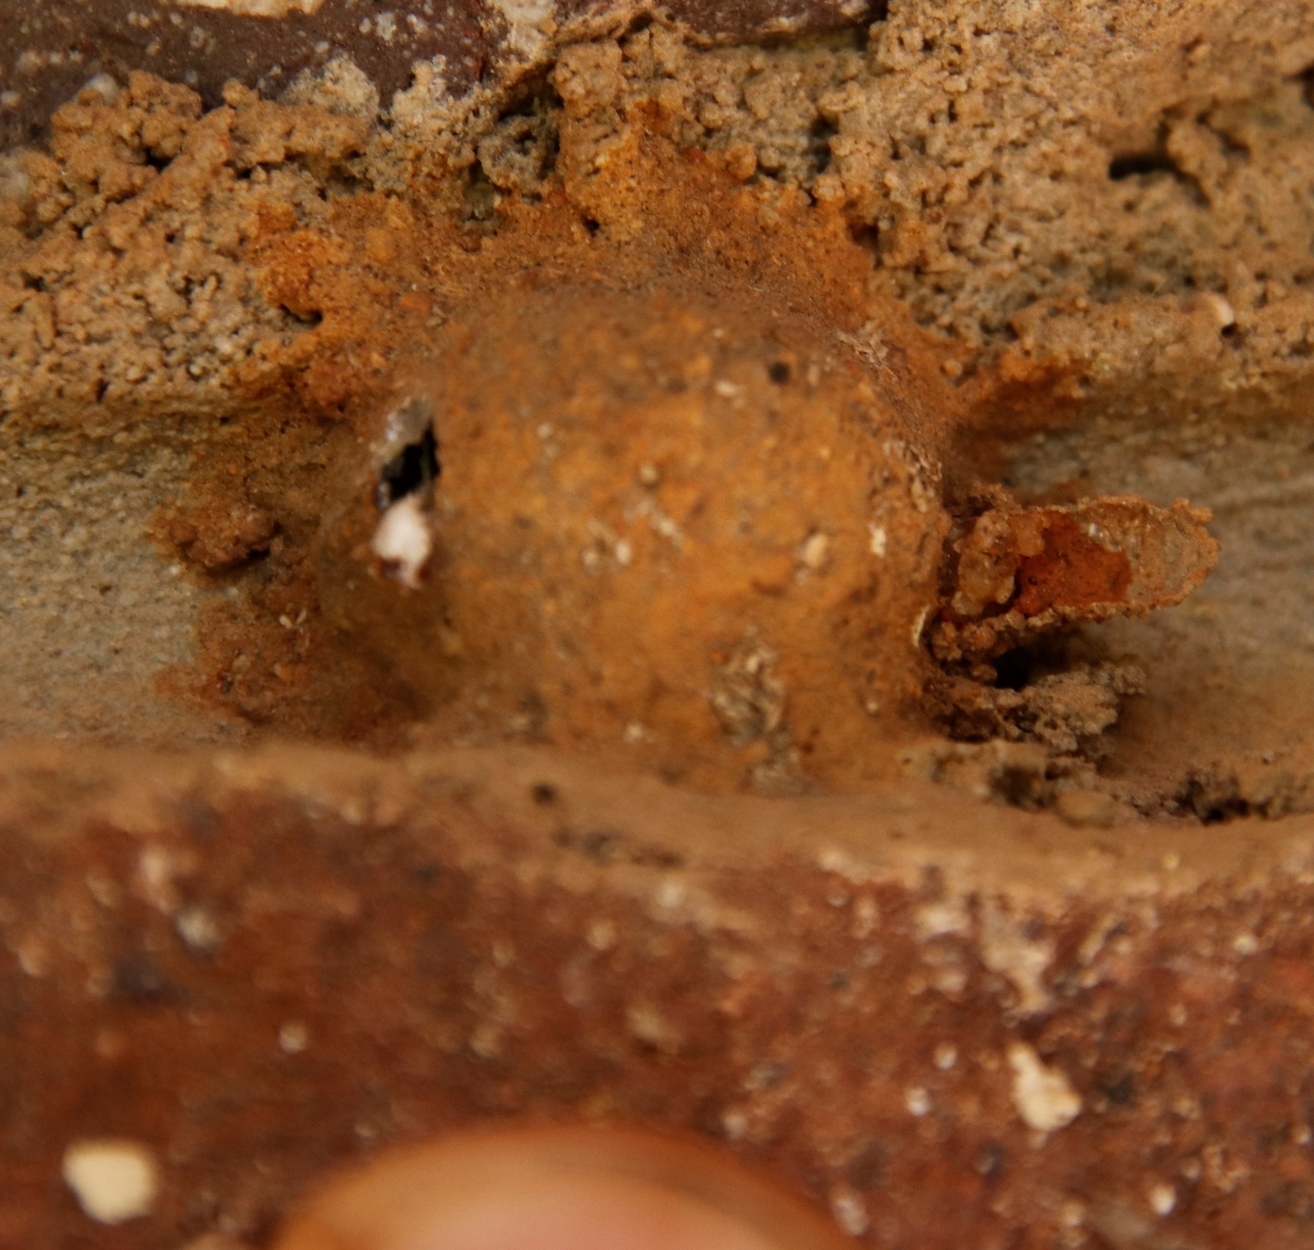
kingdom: Animalia
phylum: Arthropoda
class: Insecta
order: Hymenoptera
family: Eumenidae
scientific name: Eumenidae
